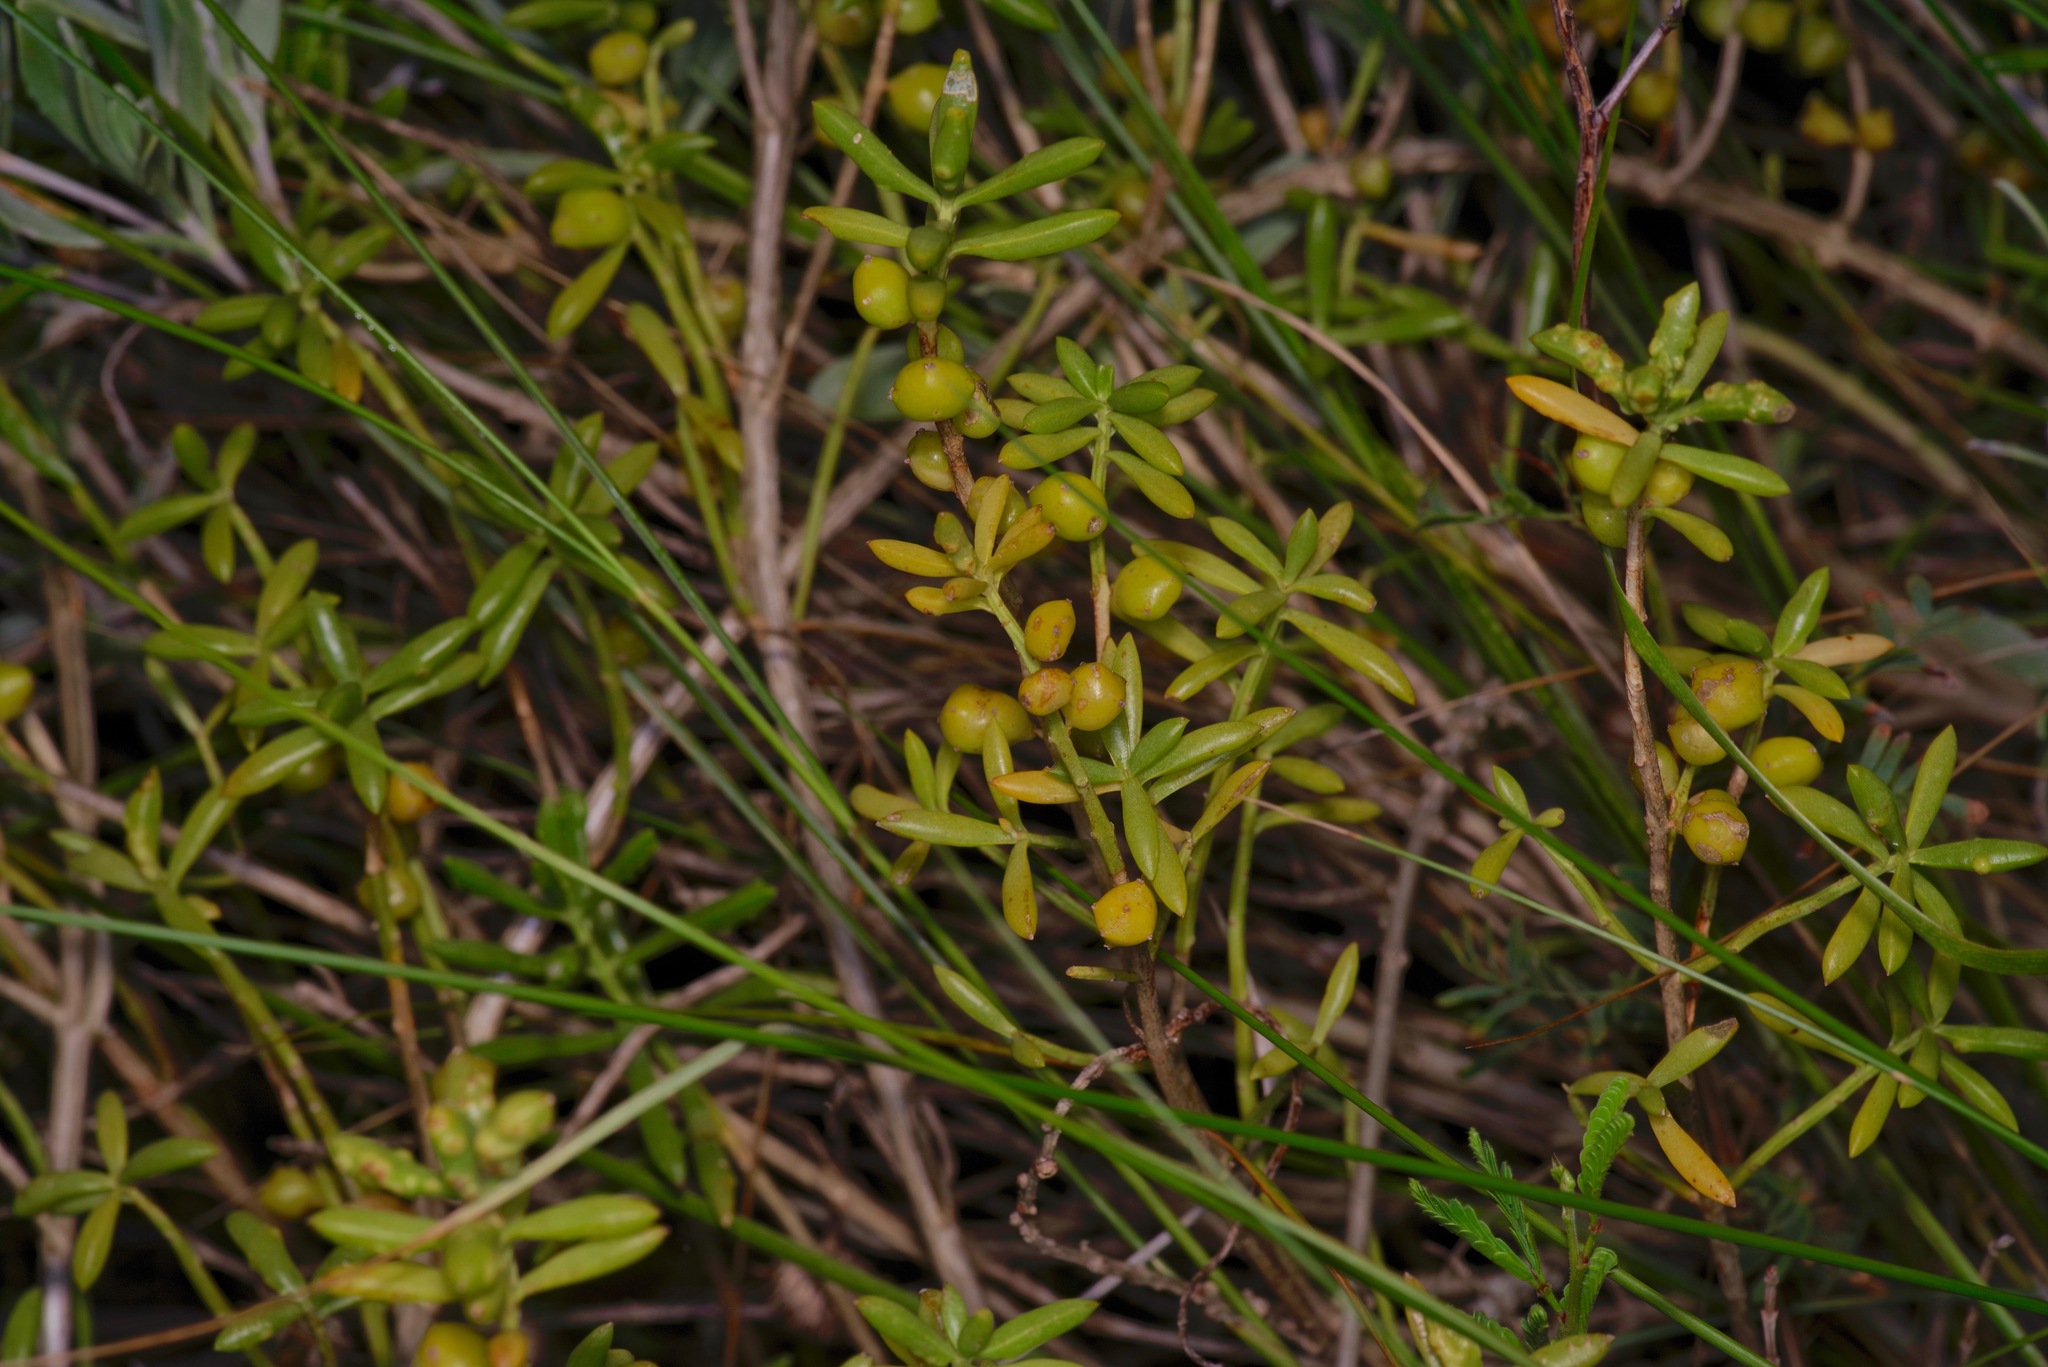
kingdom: Plantae
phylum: Tracheophyta
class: Magnoliopsida
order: Brassicales
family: Bataceae
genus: Batis
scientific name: Batis maritima
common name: Turtleweed
